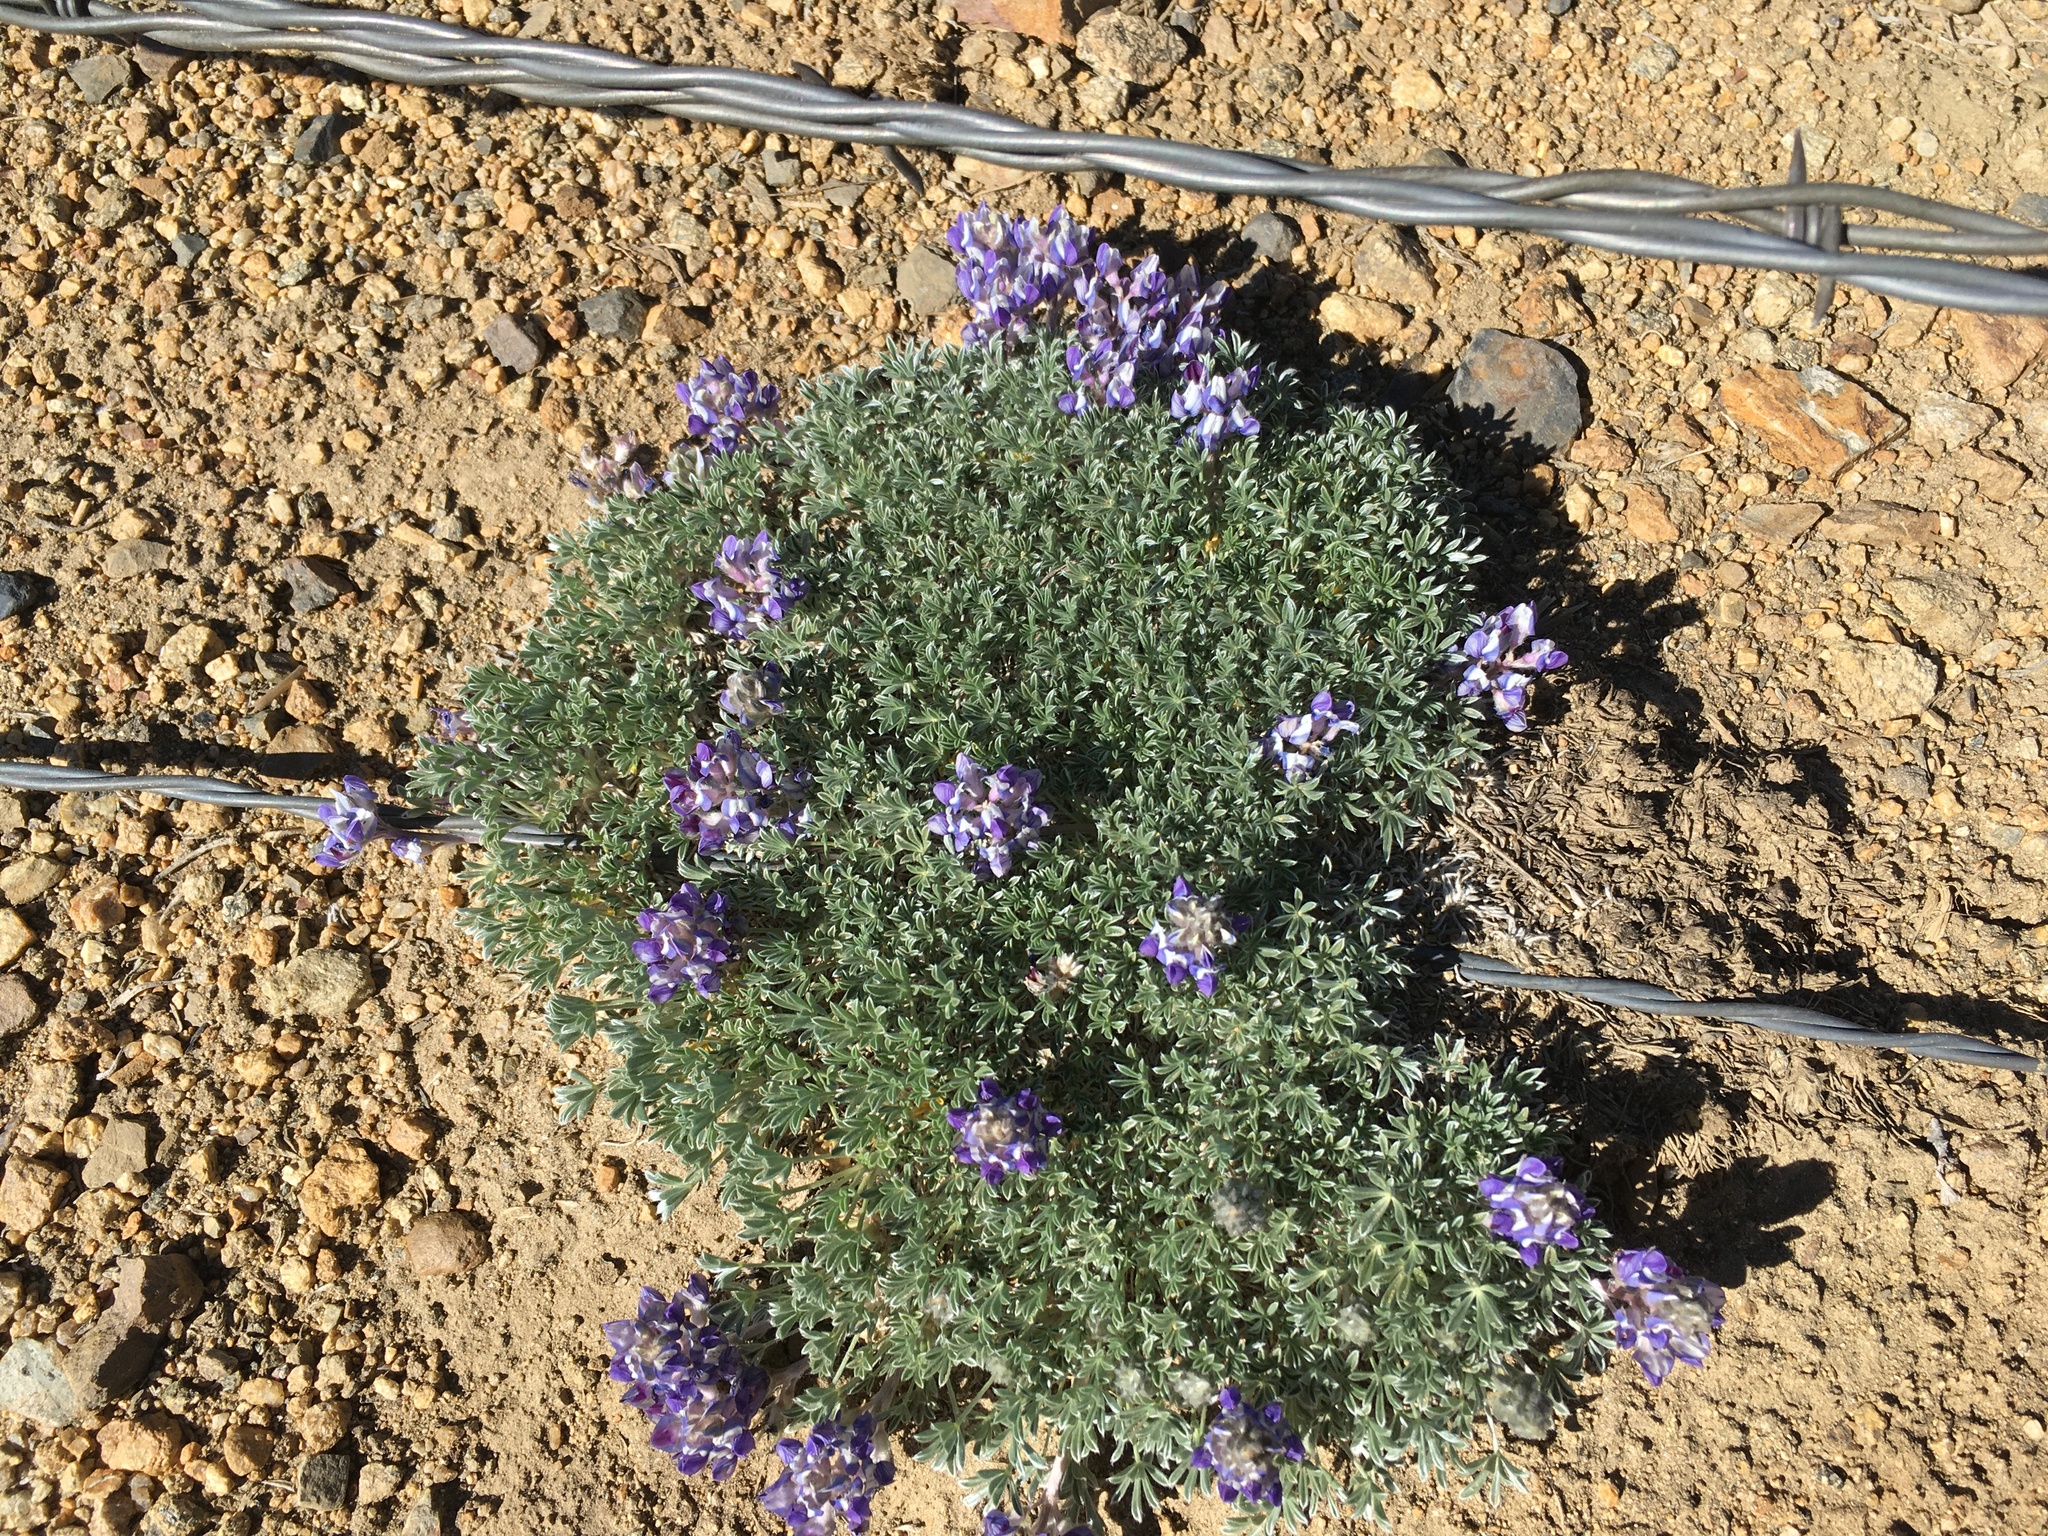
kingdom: Plantae
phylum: Tracheophyta
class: Magnoliopsida
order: Fabales
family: Fabaceae
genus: Lupinus
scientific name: Lupinus breweri
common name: Brewer's lupine
